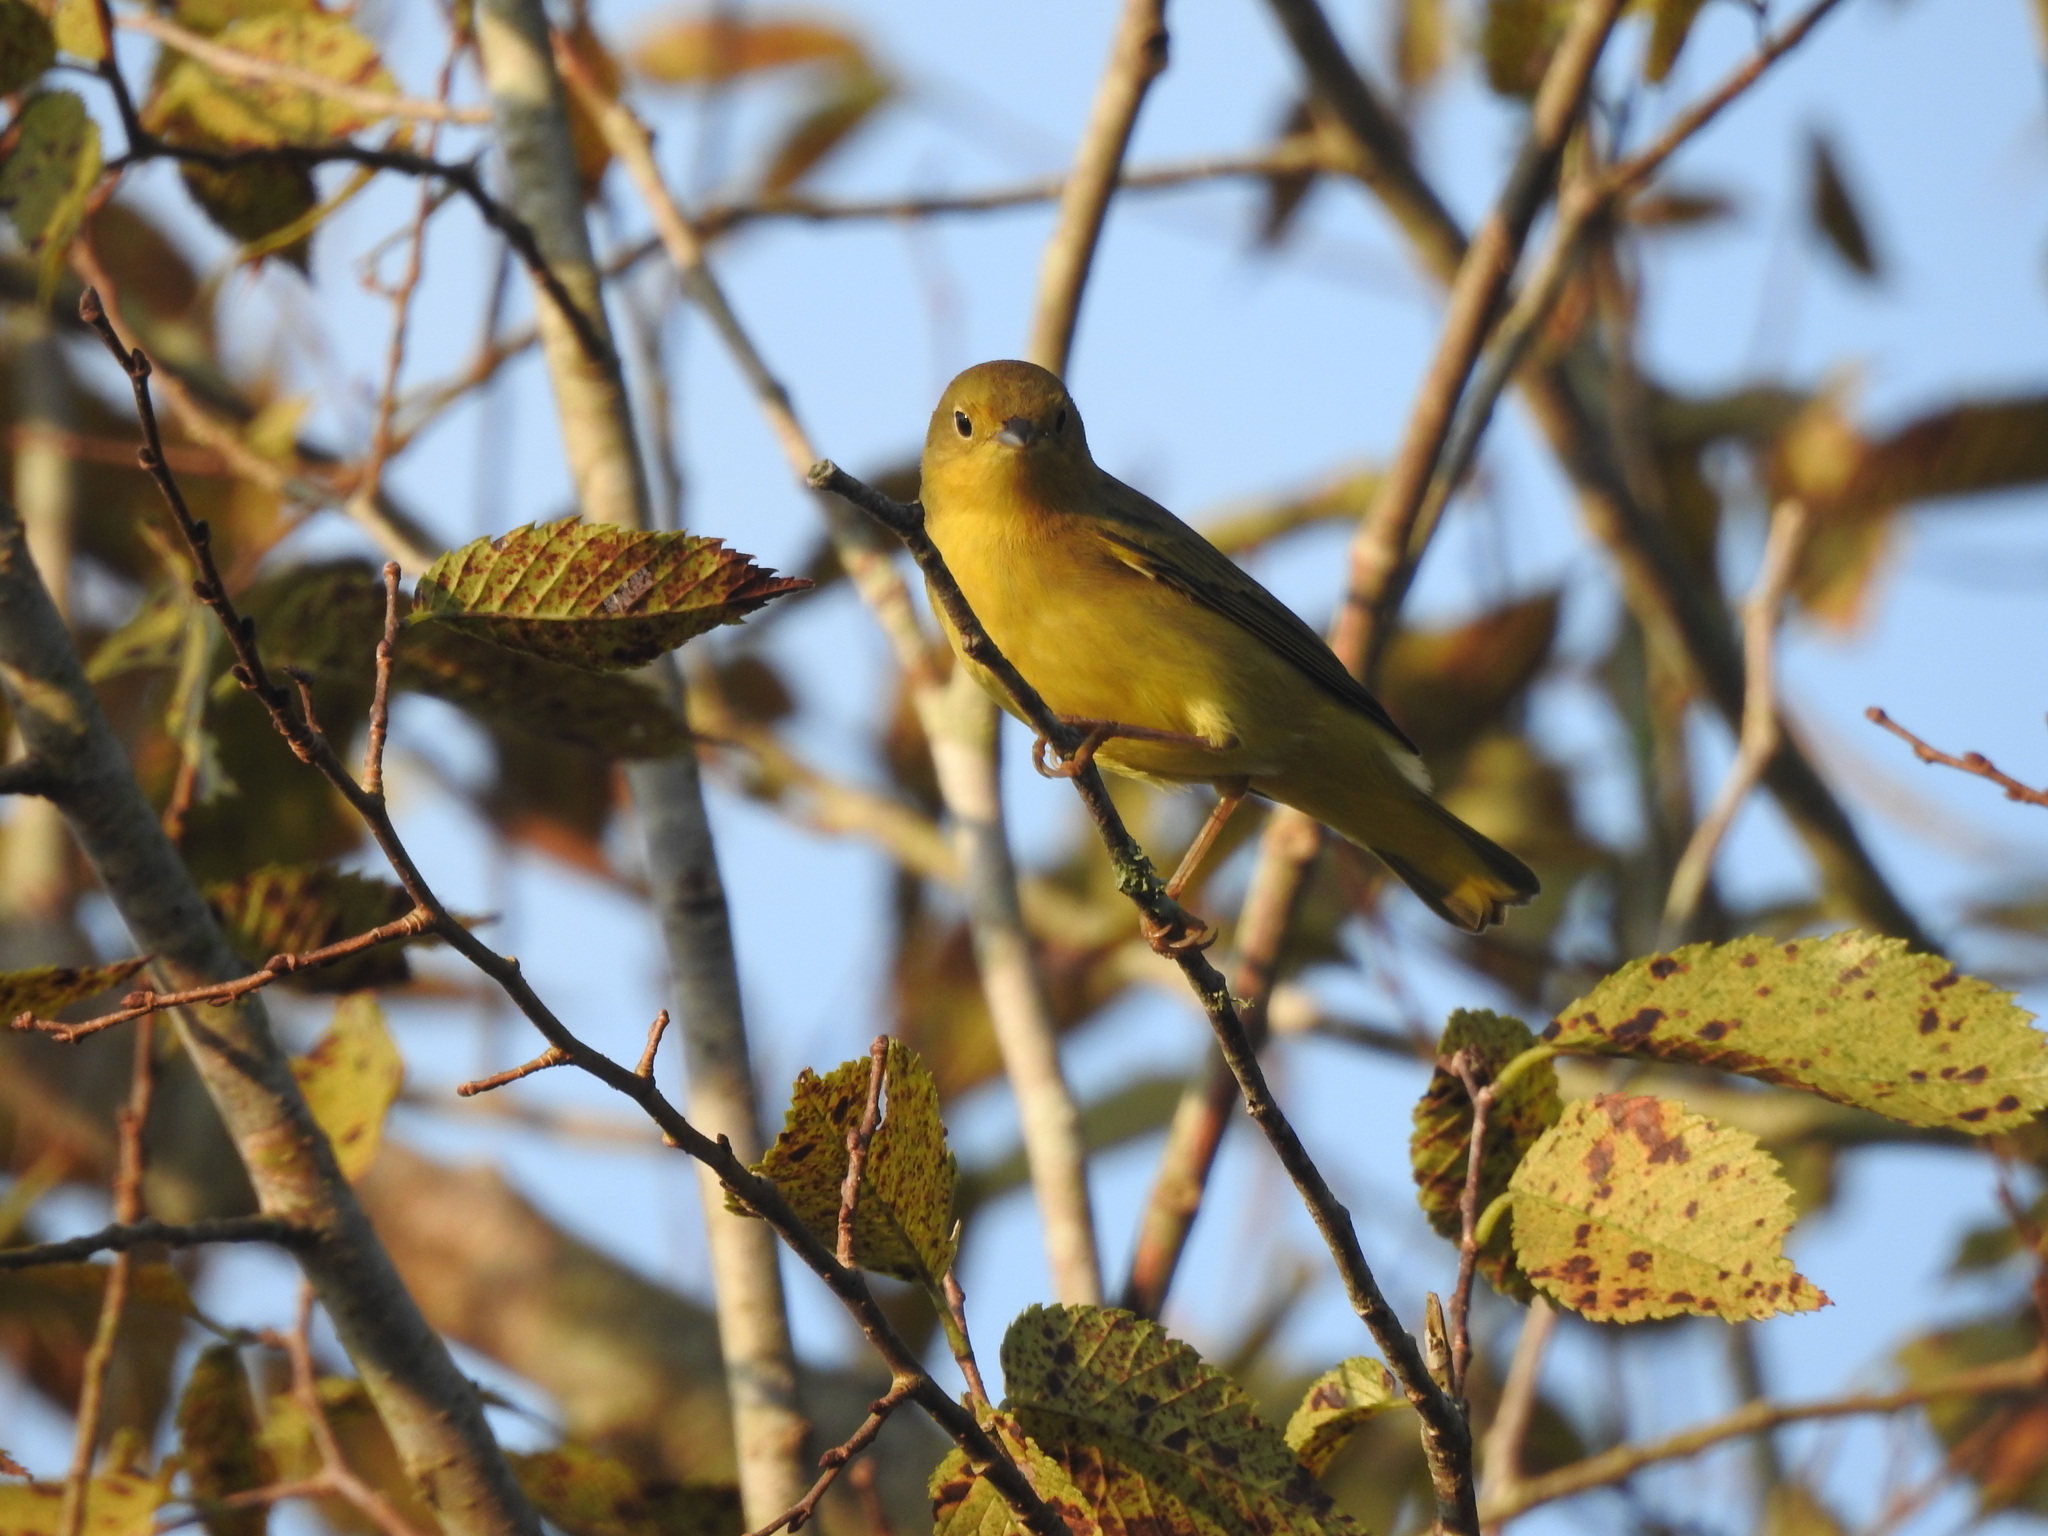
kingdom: Animalia
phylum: Chordata
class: Aves
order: Passeriformes
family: Parulidae
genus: Setophaga
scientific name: Setophaga petechia
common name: Yellow warbler
